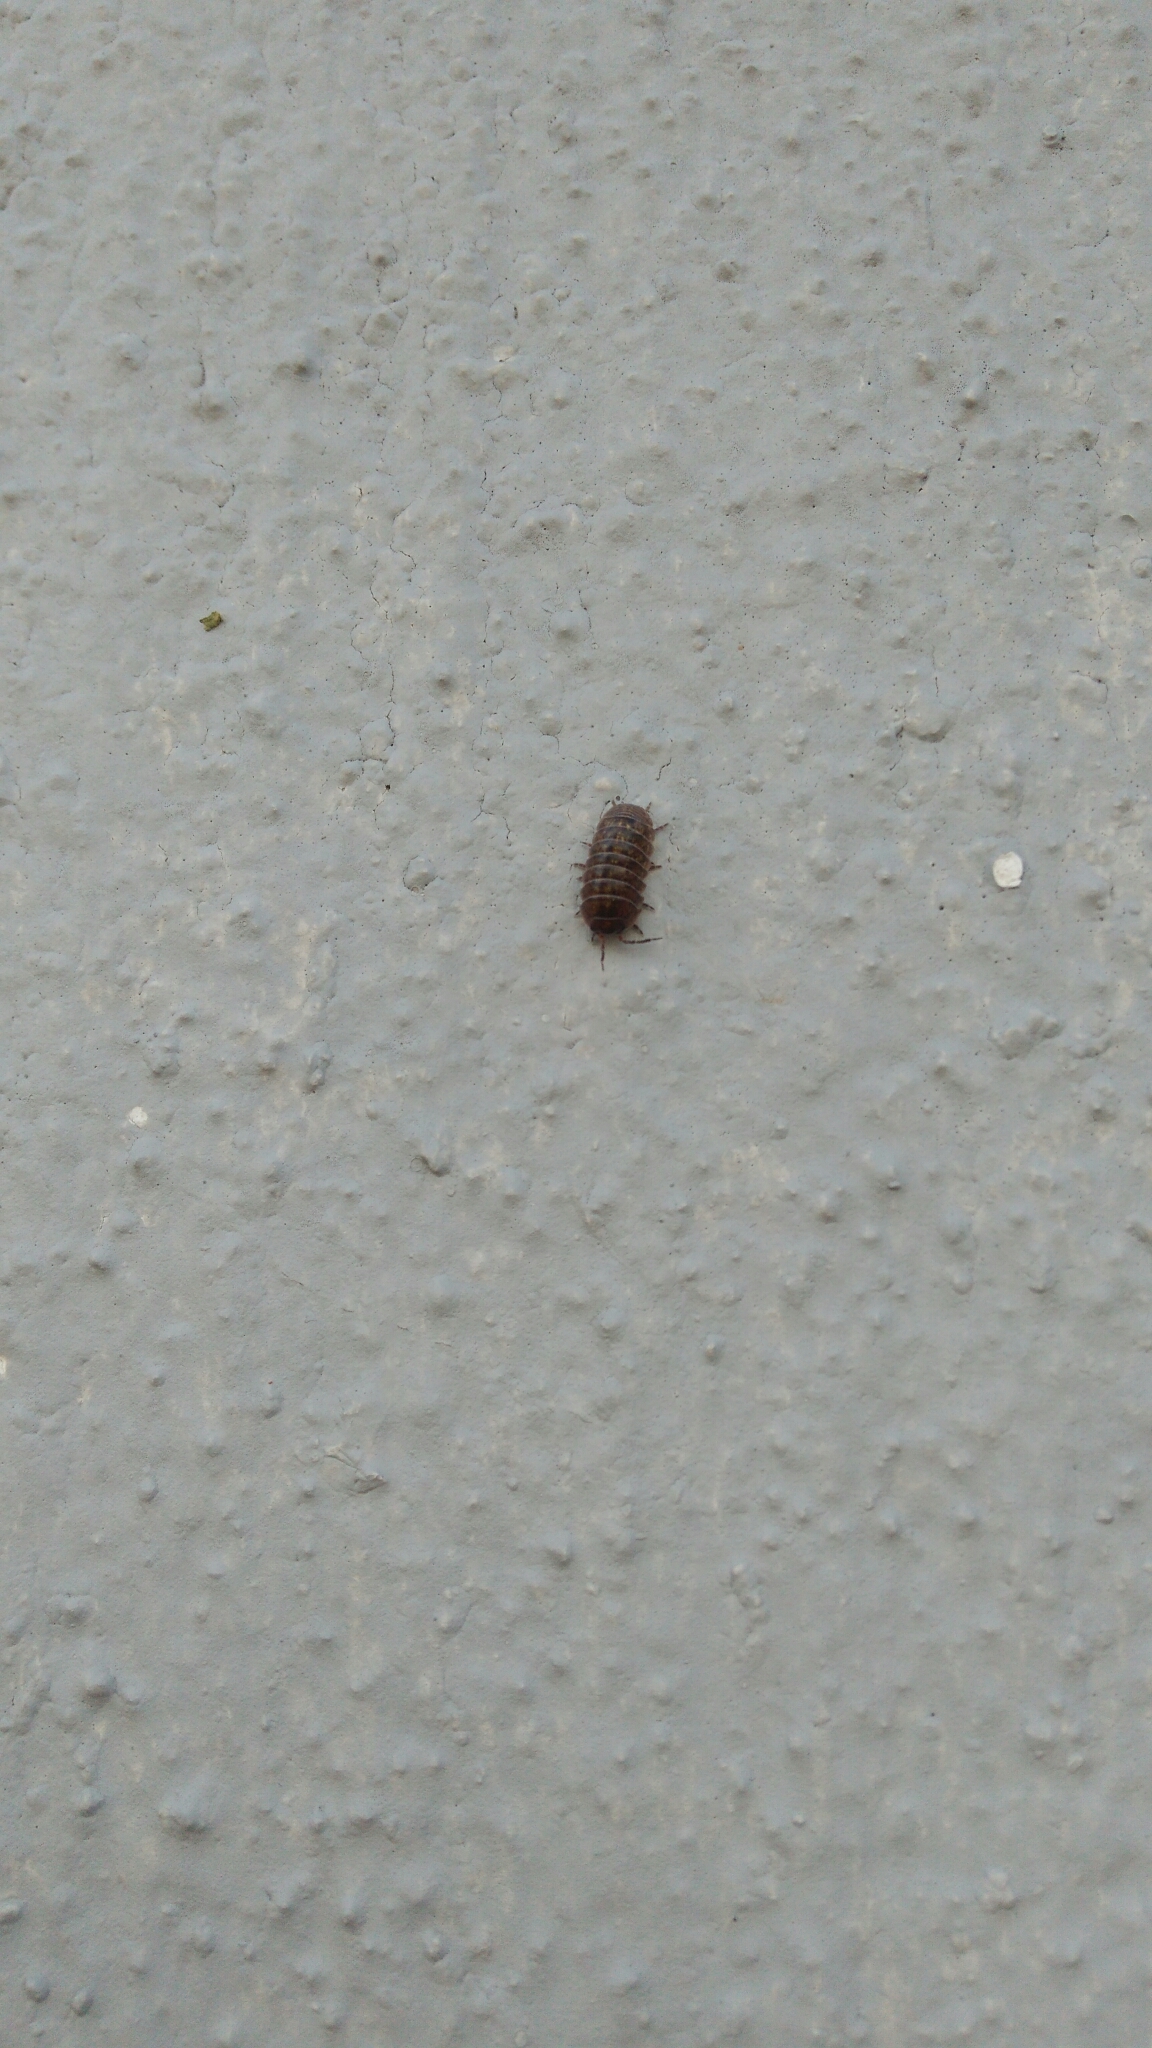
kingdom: Animalia
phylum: Arthropoda
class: Malacostraca
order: Isopoda
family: Armadillidiidae
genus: Armadillidium
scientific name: Armadillidium vulgare
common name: Common pill woodlouse
